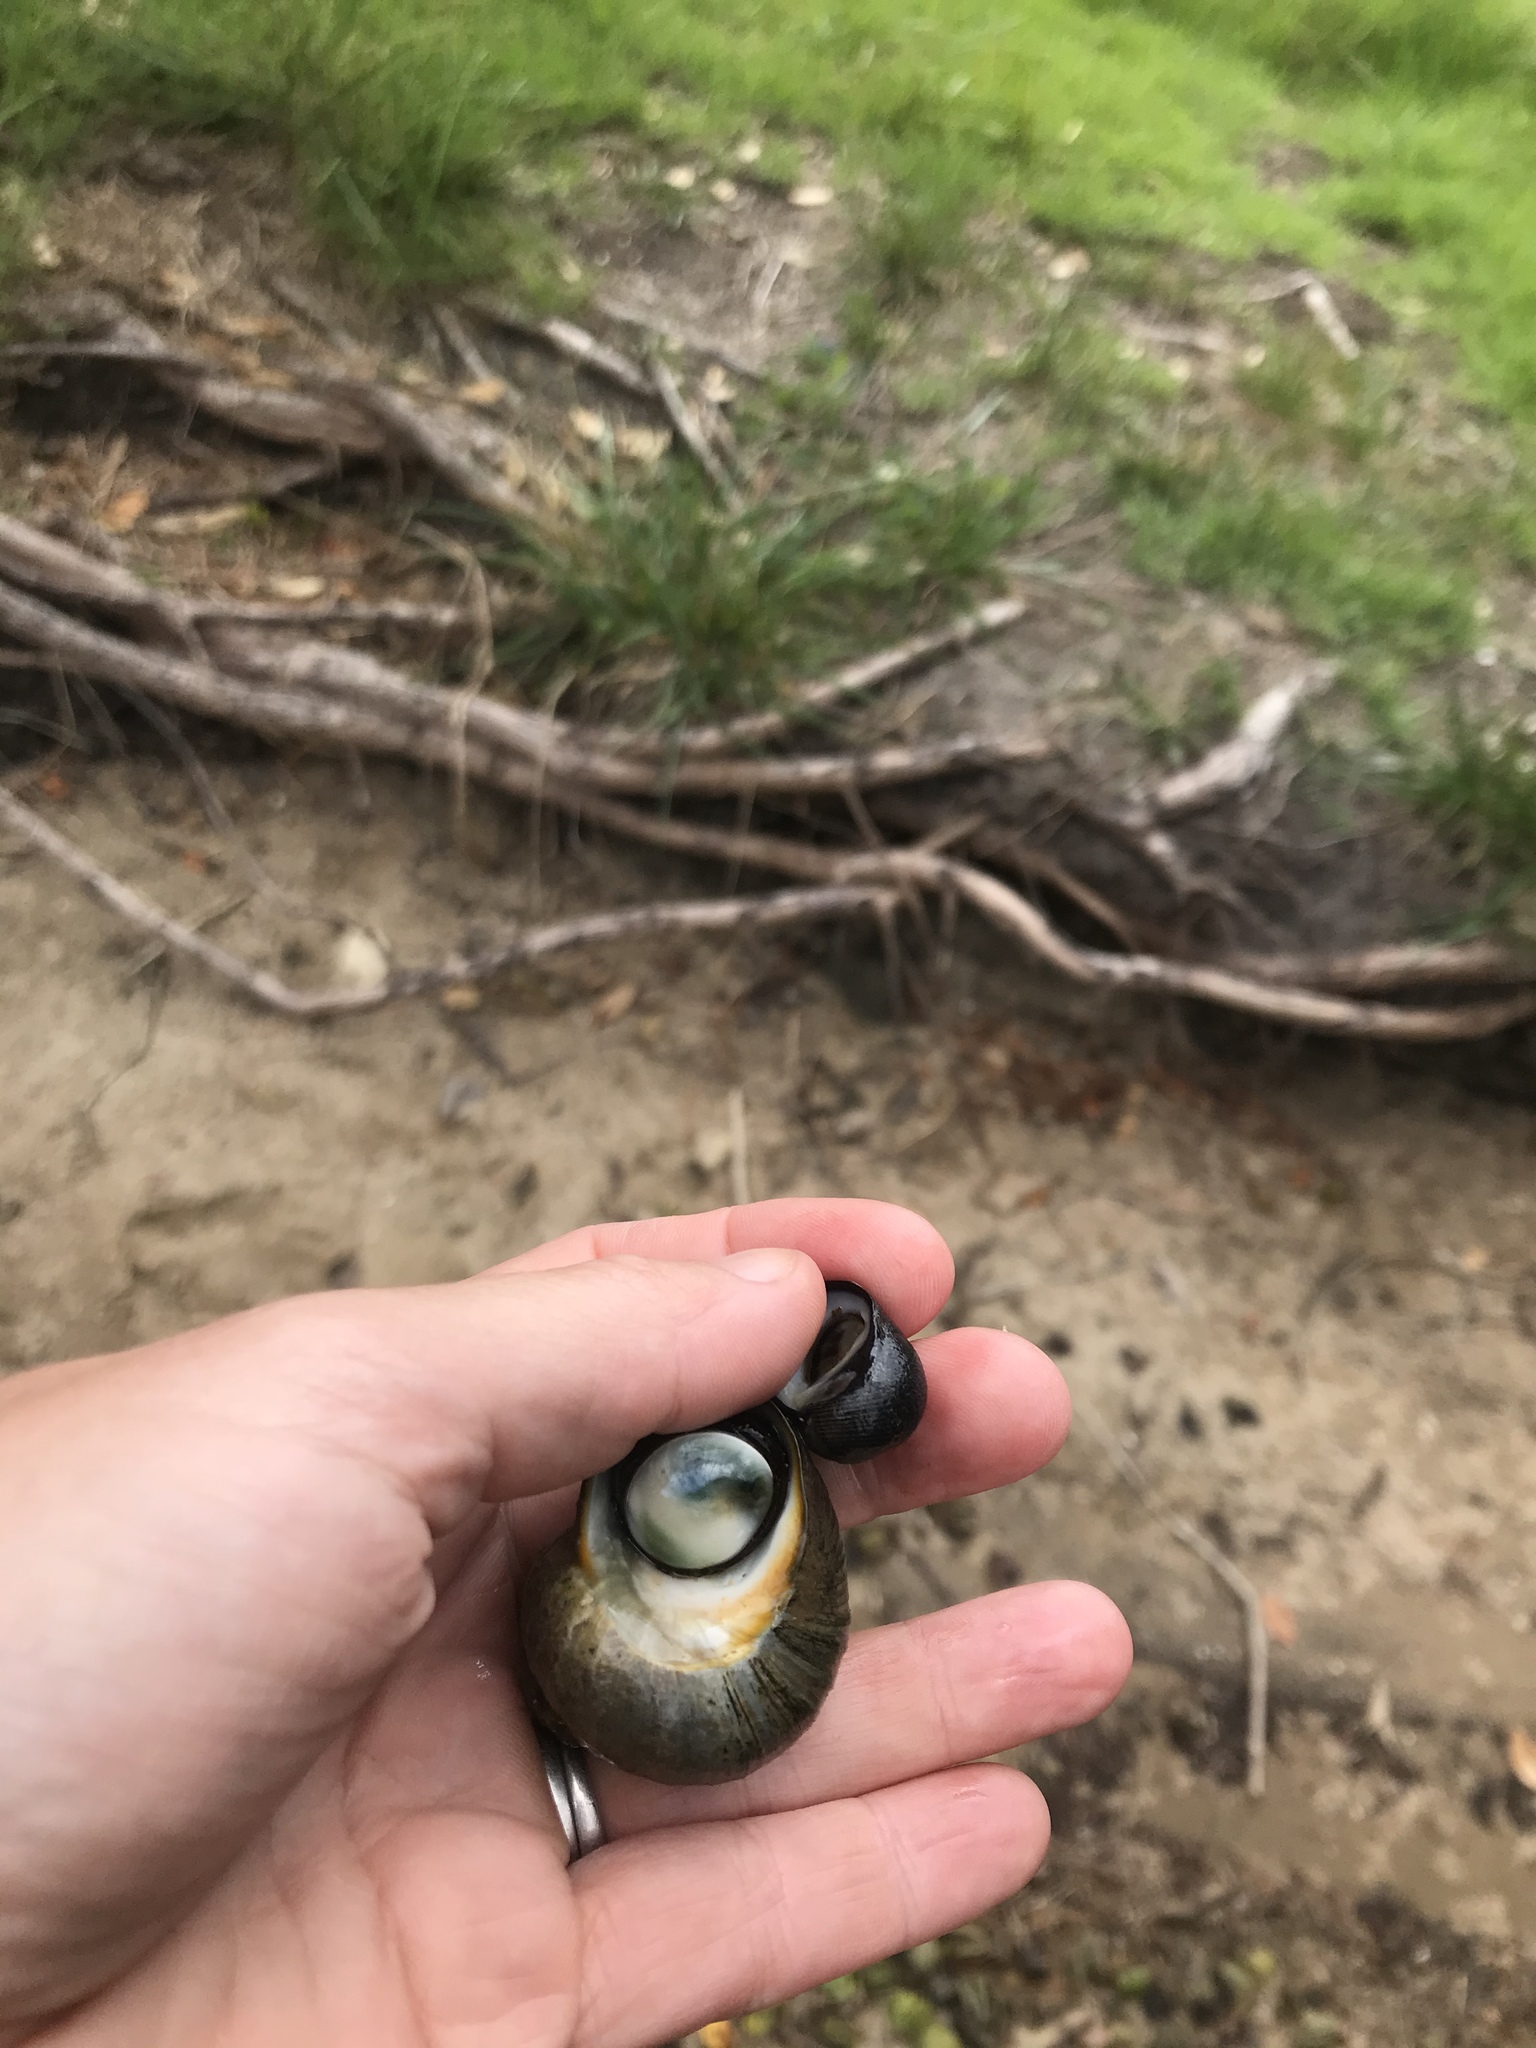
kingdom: Animalia
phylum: Mollusca
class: Gastropoda
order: Trochida
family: Turbinidae
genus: Lunella
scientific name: Lunella smaragda
